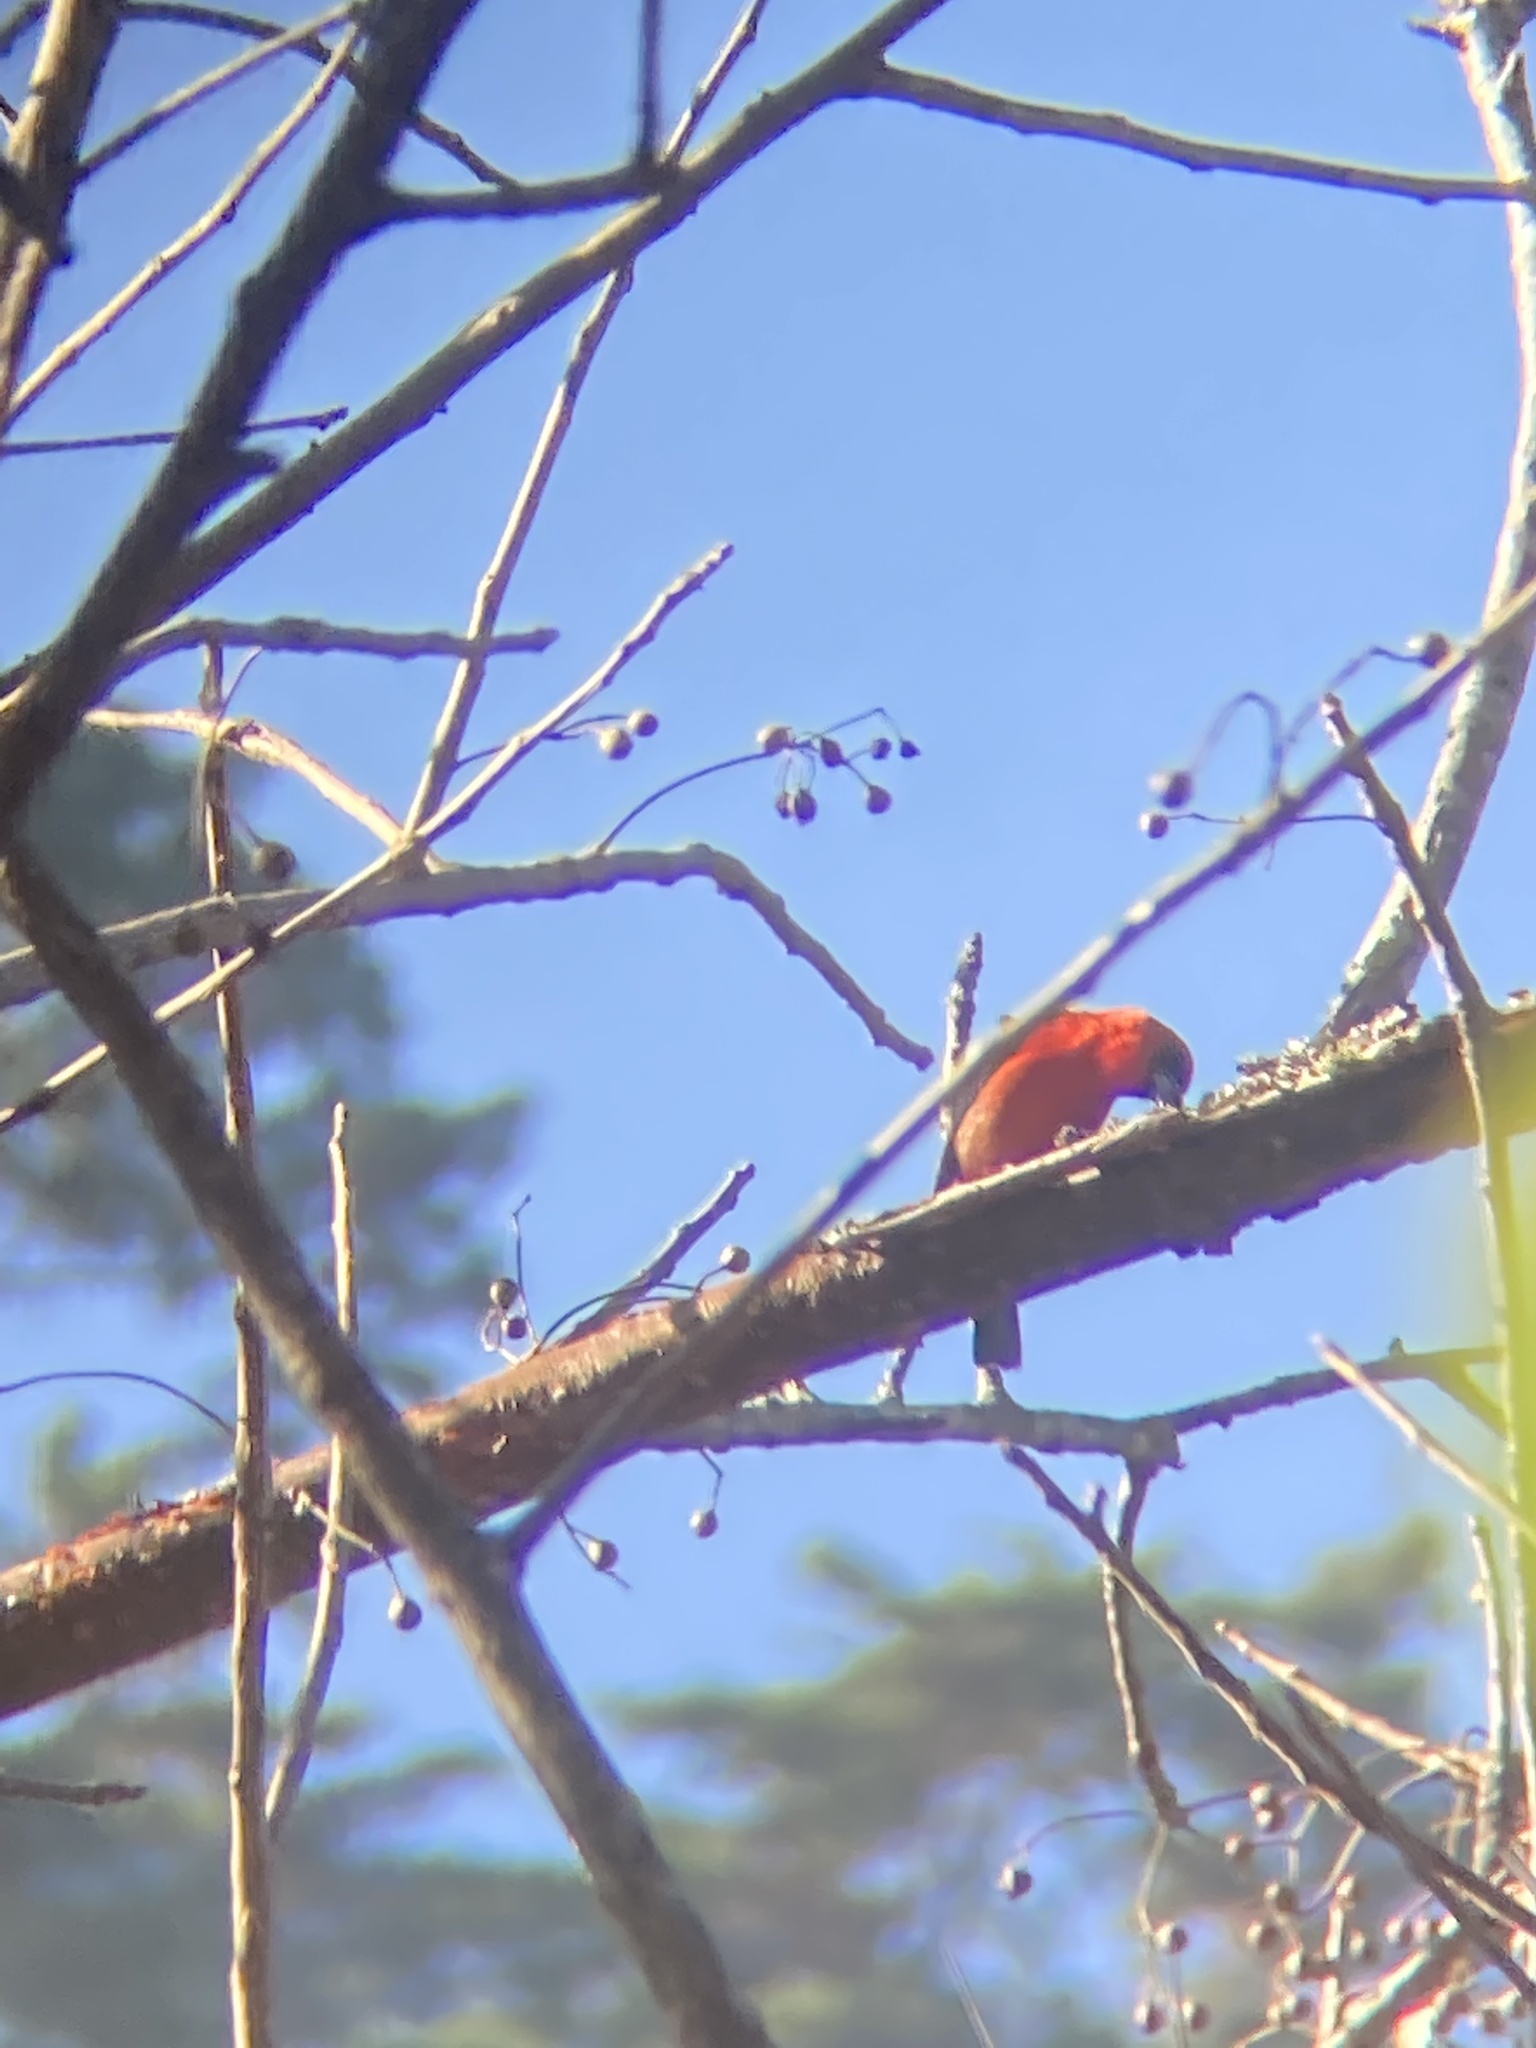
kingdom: Animalia
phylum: Chordata
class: Aves
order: Passeriformes
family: Cardinalidae
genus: Piranga
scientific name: Piranga leucoptera
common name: White-winged tanager
